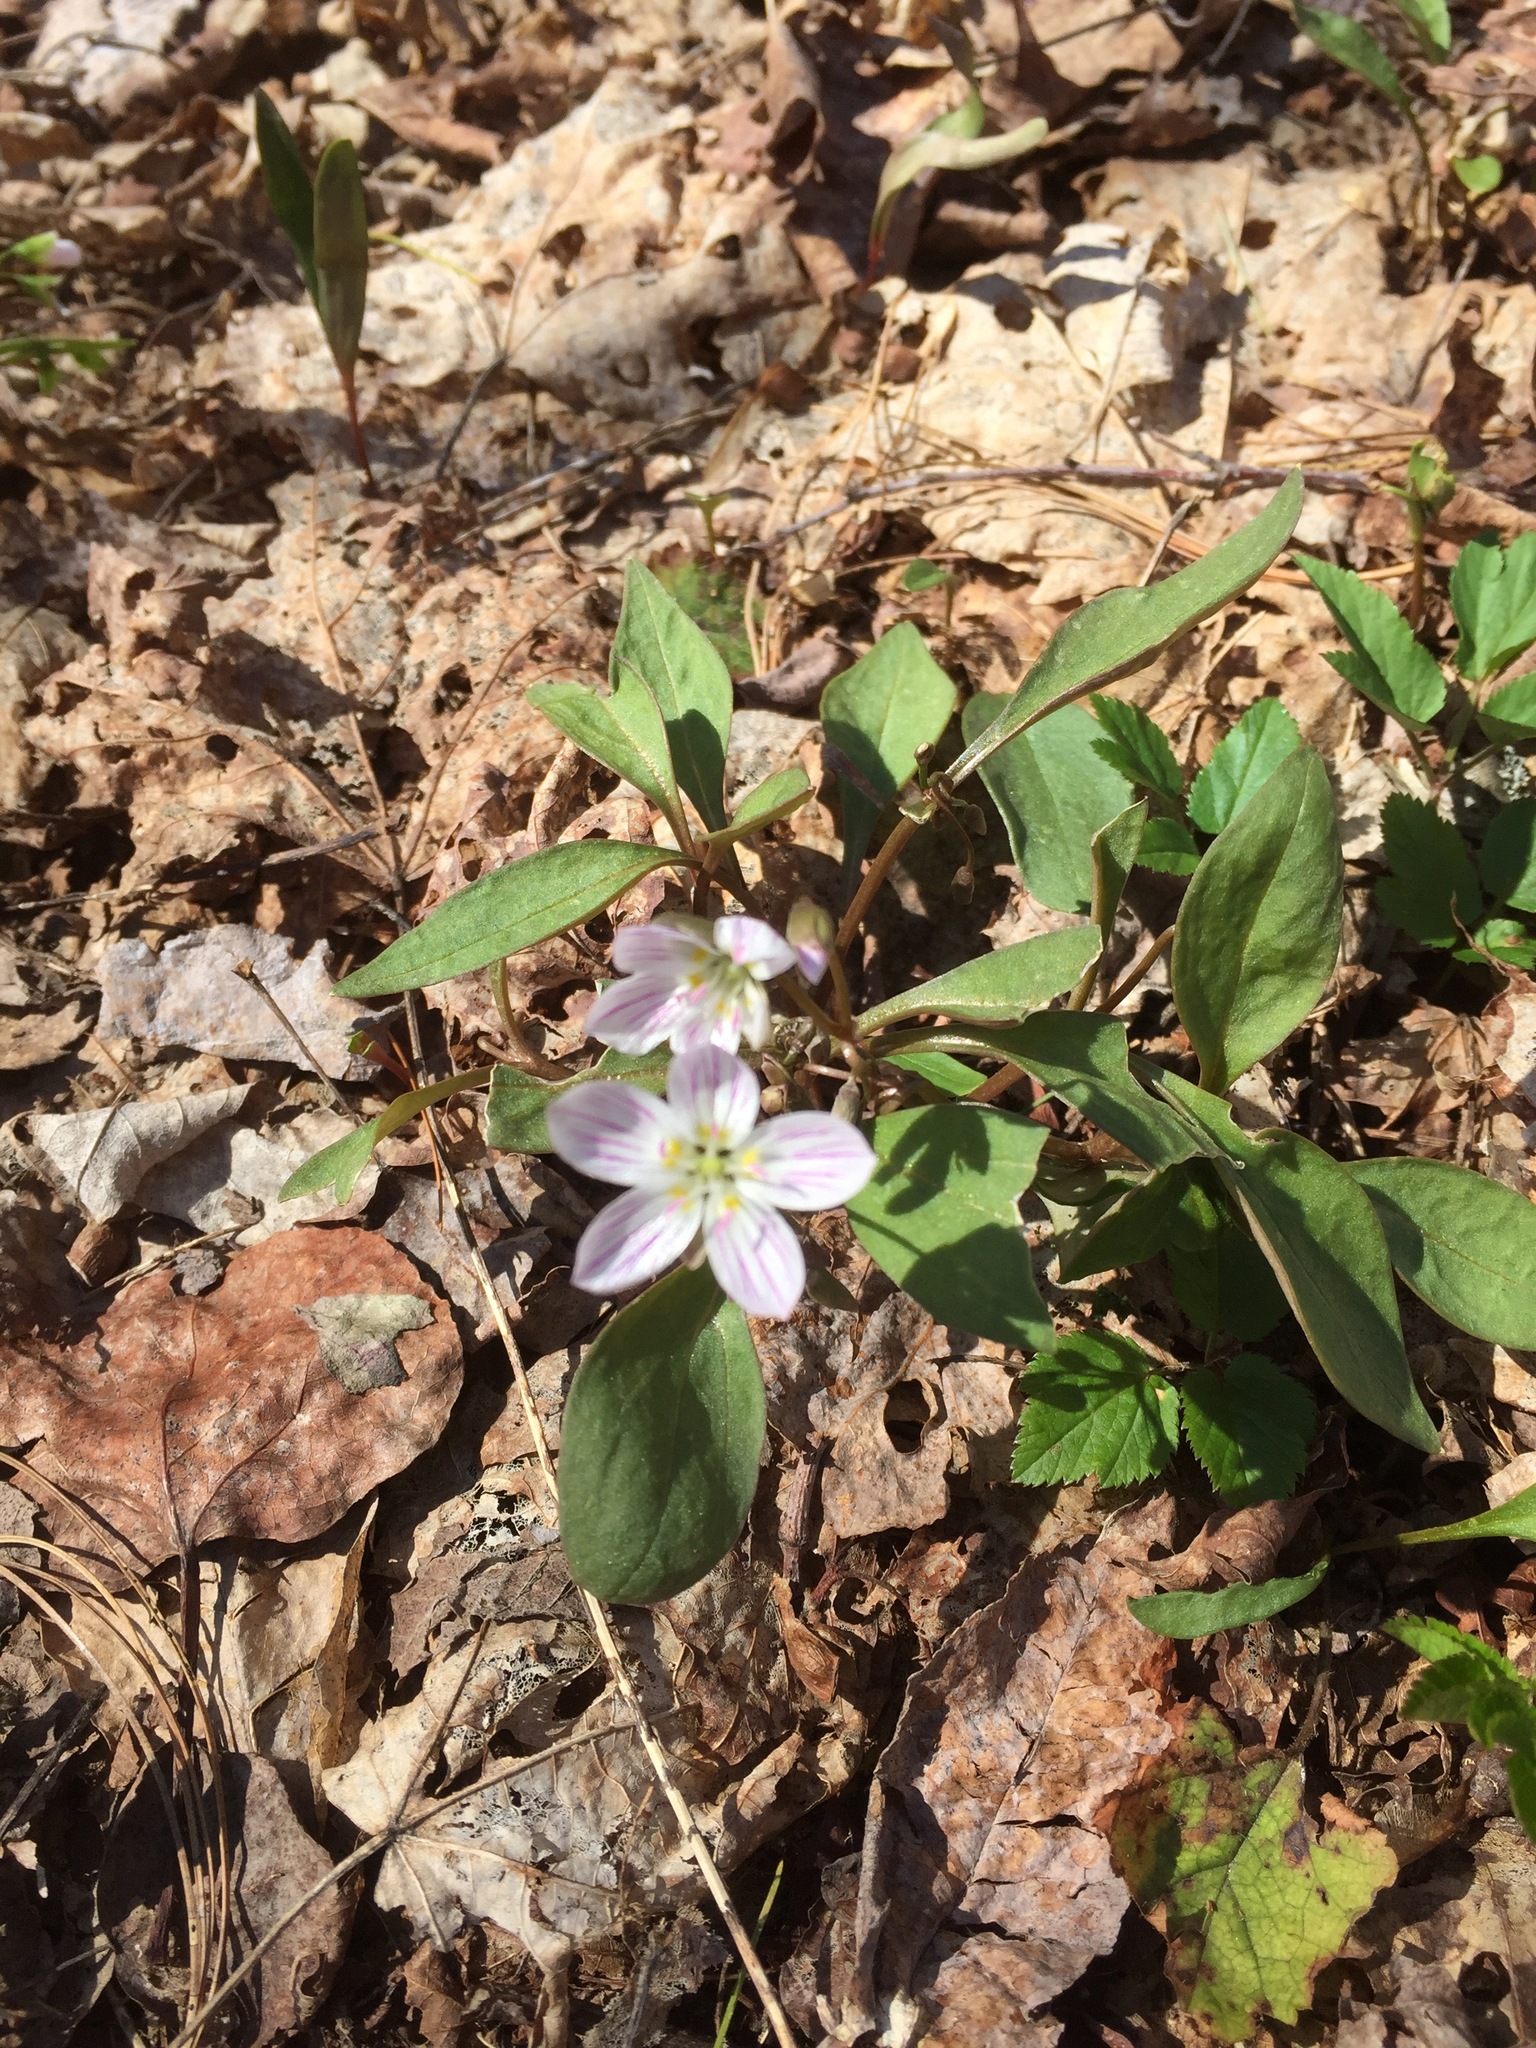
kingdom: Plantae
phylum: Tracheophyta
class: Magnoliopsida
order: Caryophyllales
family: Montiaceae
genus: Claytonia
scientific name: Claytonia caroliniana
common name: Carolina spring beauty
